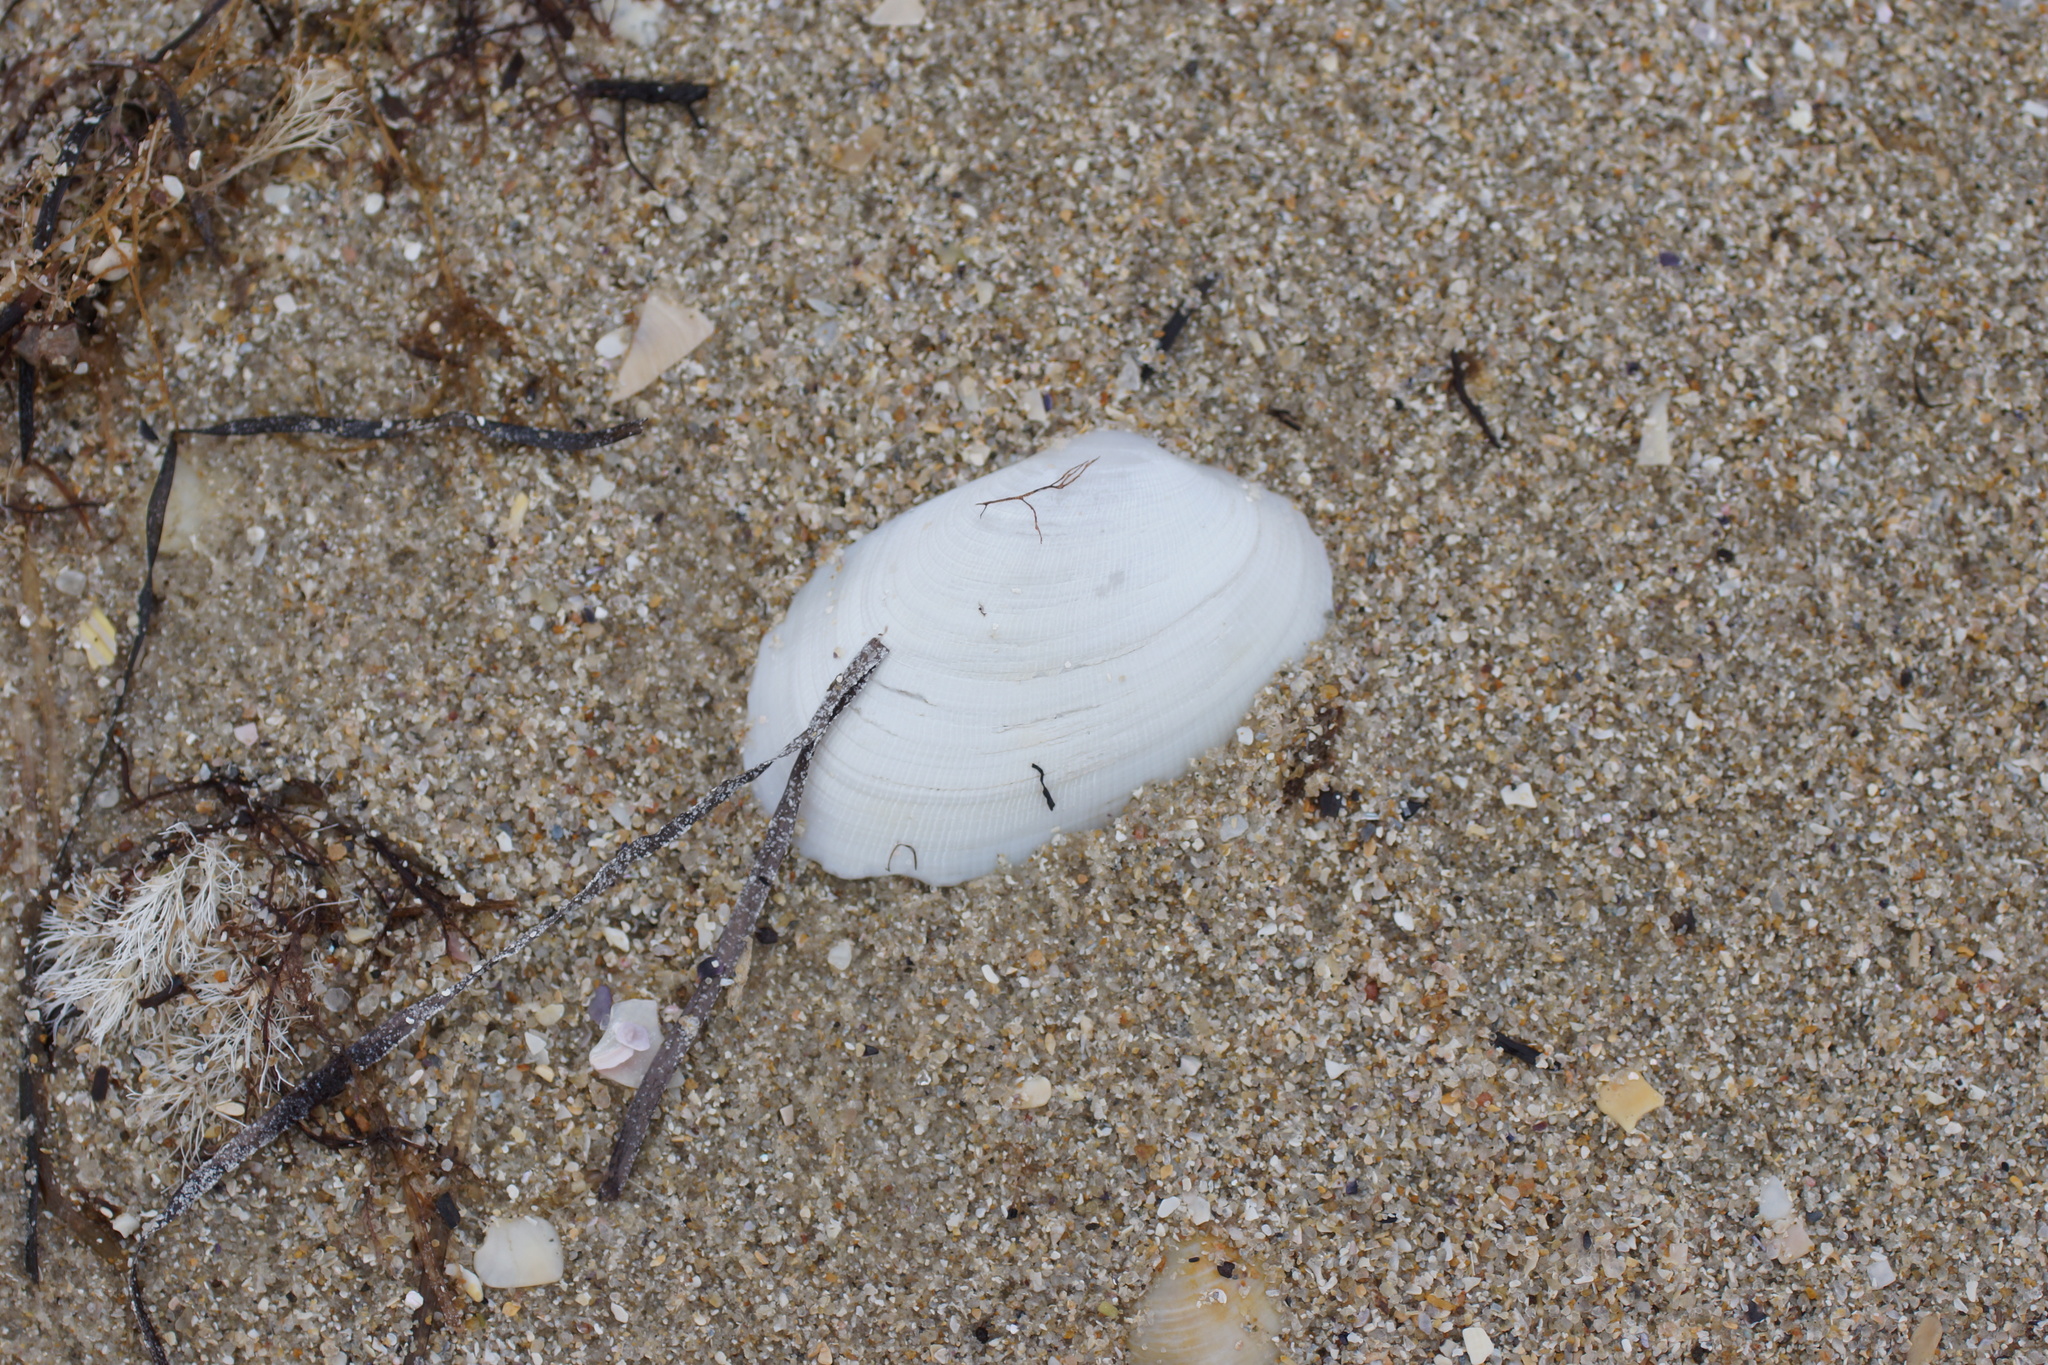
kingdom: Animalia
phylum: Mollusca
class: Bivalvia
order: Venerida
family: Veneridae
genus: Venerupis
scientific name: Venerupis galactites
